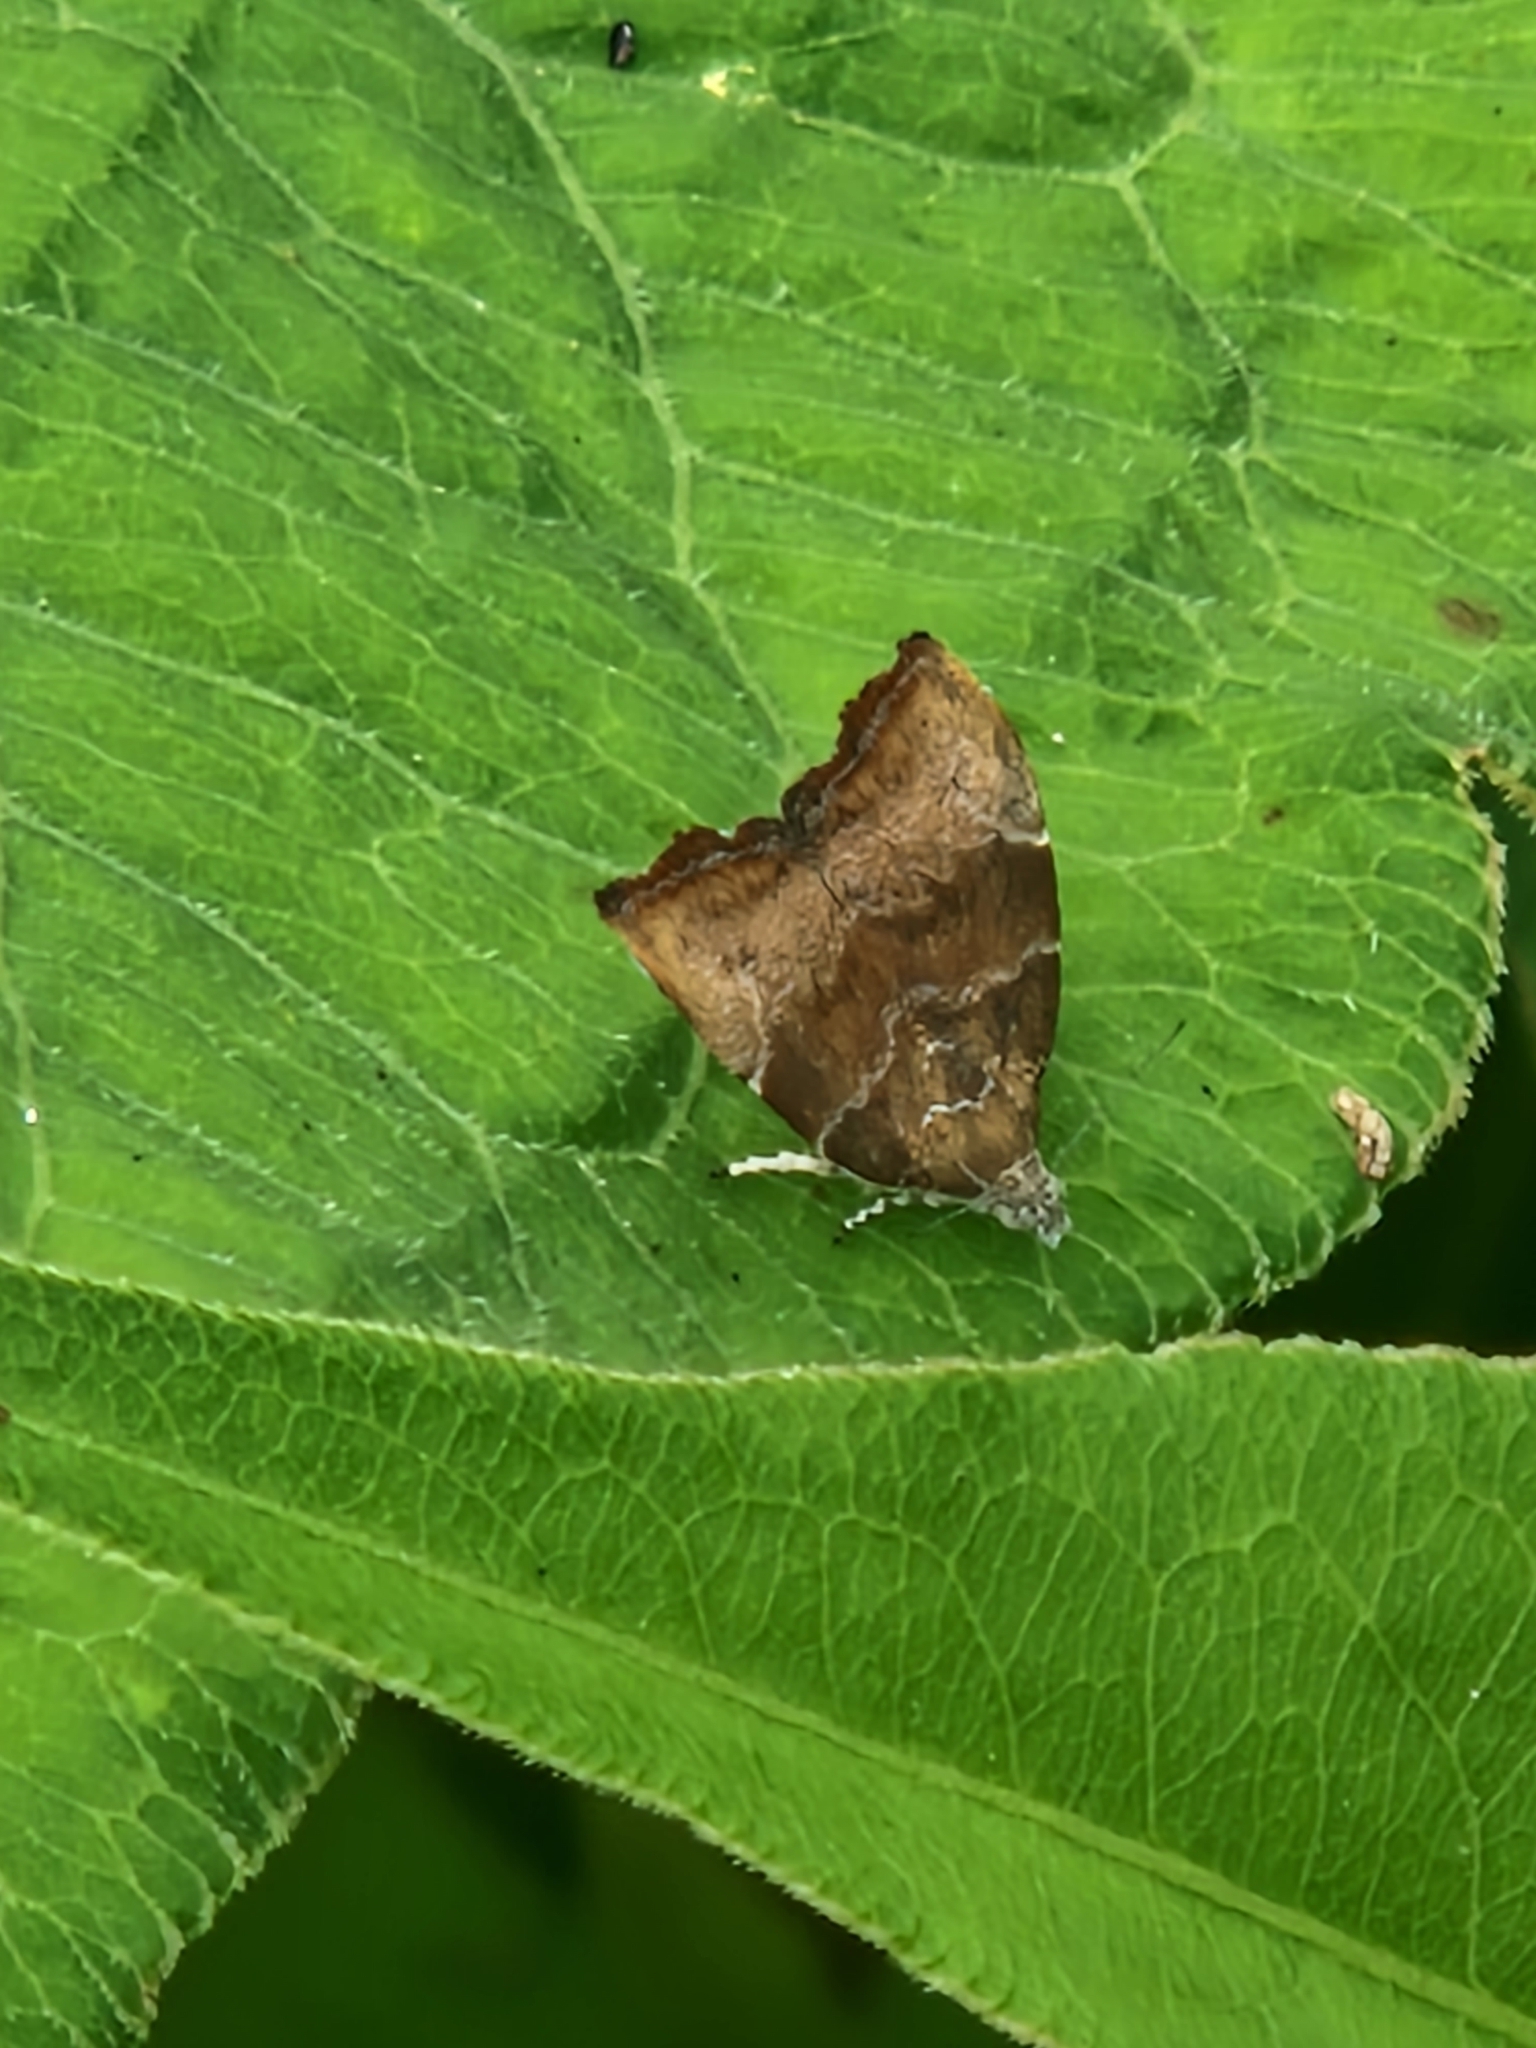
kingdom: Animalia
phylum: Arthropoda
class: Insecta
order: Lepidoptera
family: Choreutidae
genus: Anthophila
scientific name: Anthophila nemorana
